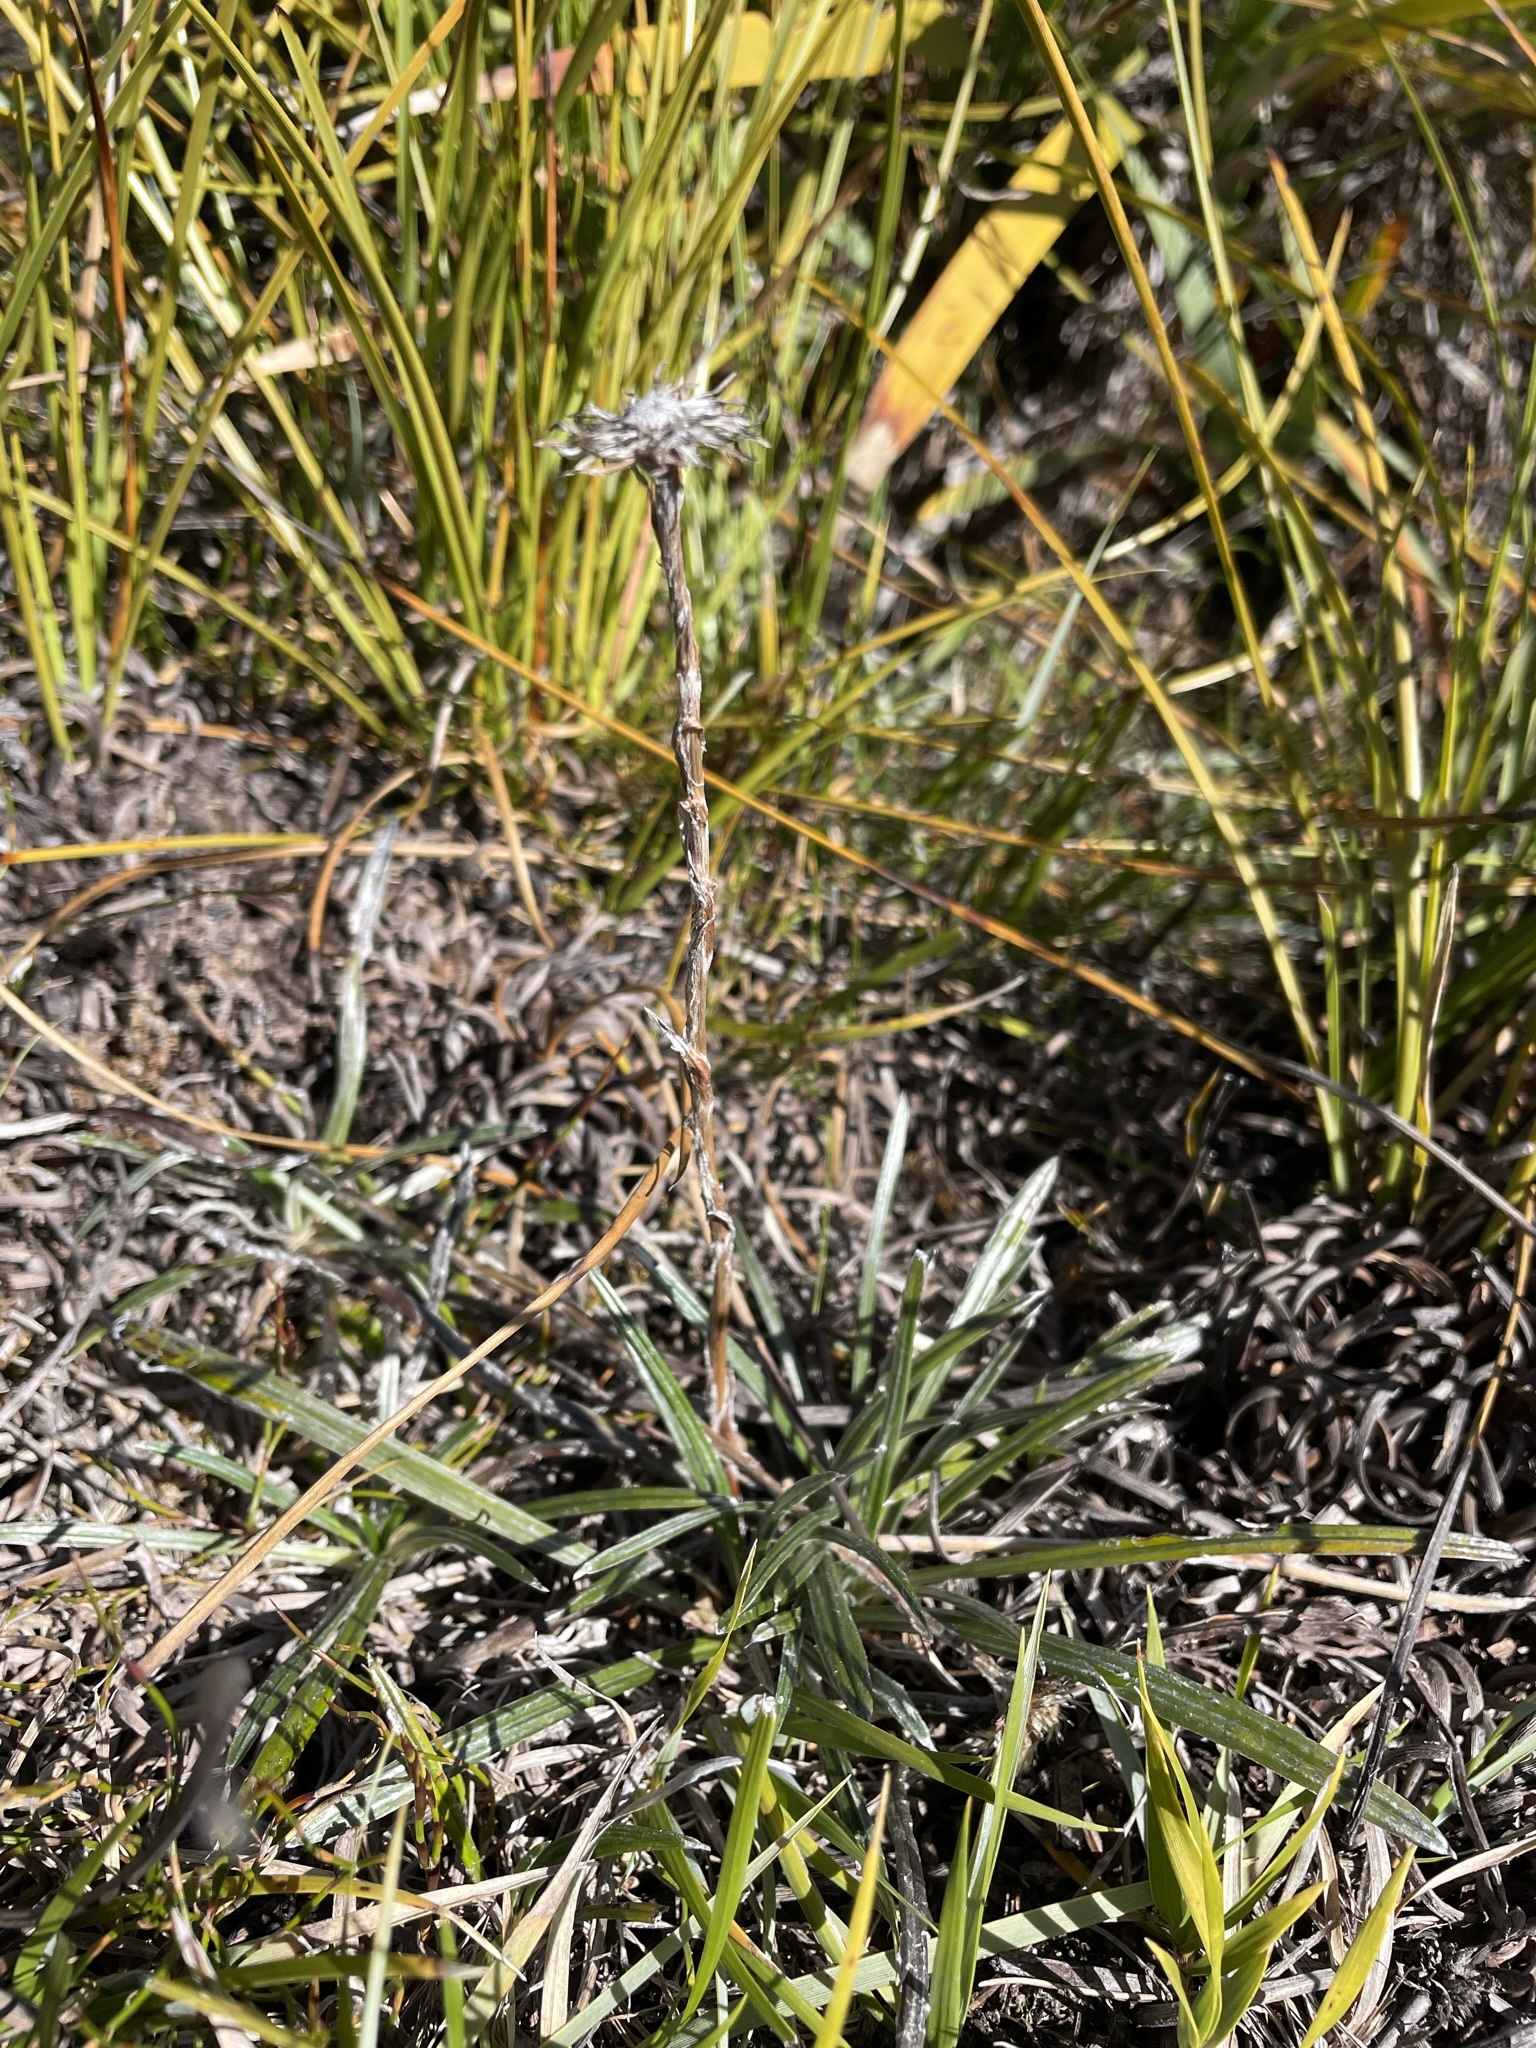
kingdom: Plantae
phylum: Tracheophyta
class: Magnoliopsida
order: Asterales
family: Asteraceae
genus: Celmisia
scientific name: Celmisia asteliifolia
